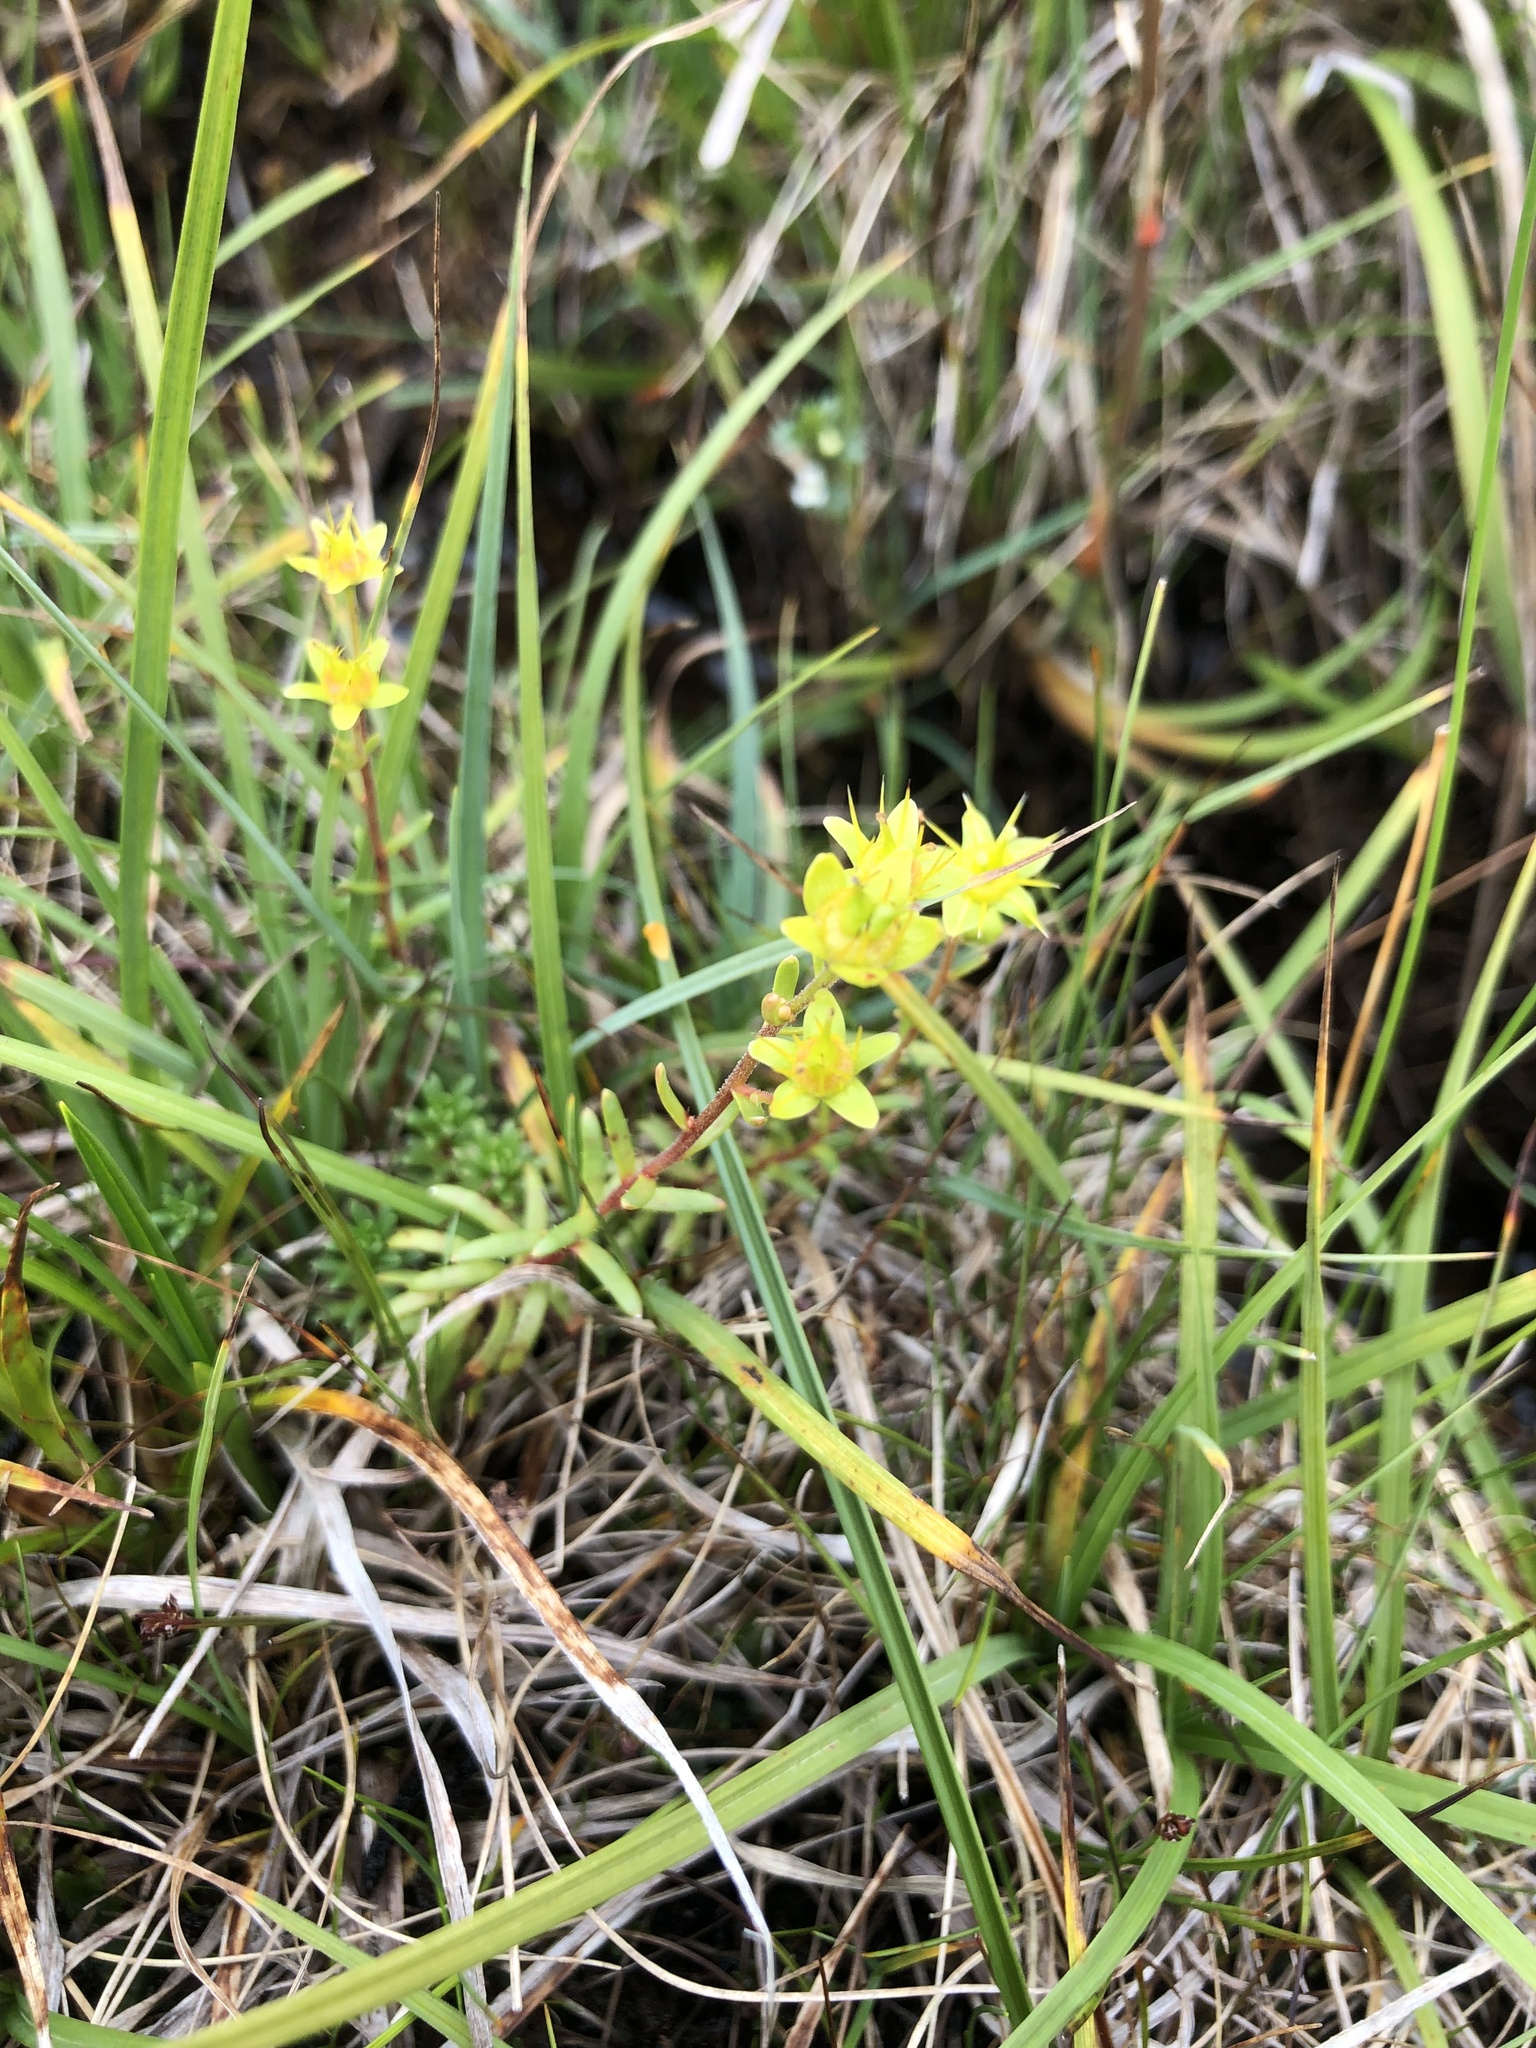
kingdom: Plantae
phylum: Tracheophyta
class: Magnoliopsida
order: Saxifragales
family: Saxifragaceae
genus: Saxifraga
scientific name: Saxifraga aizoides
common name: Yellow mountain saxifrage
